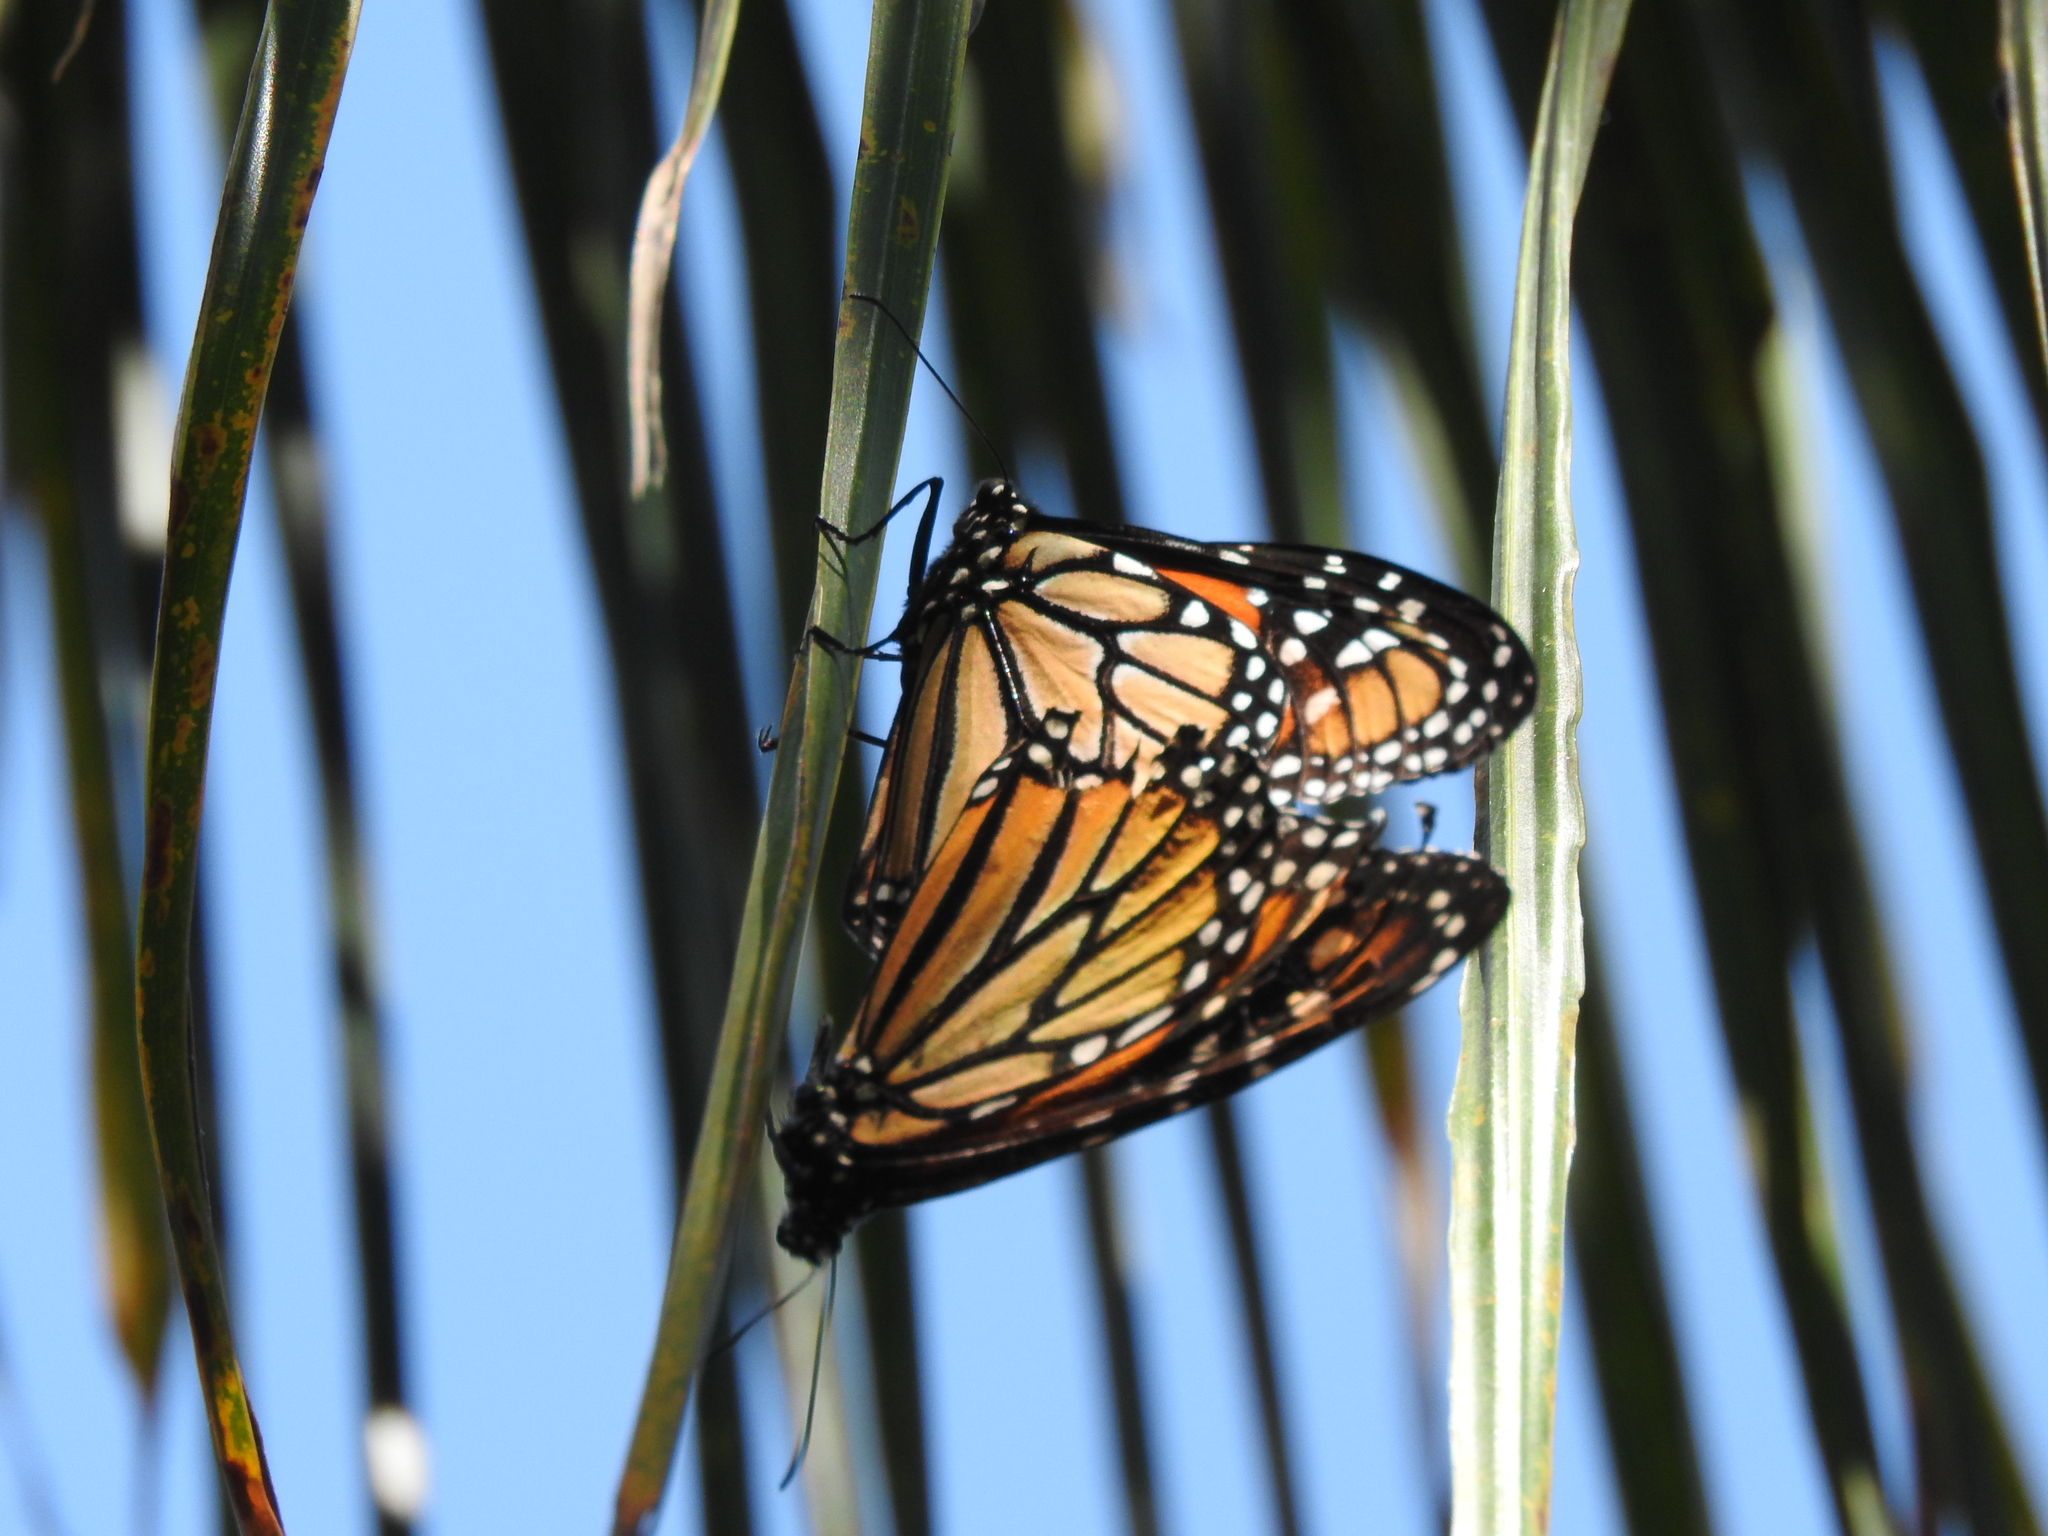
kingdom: Animalia
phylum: Arthropoda
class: Insecta
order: Lepidoptera
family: Nymphalidae
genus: Danaus
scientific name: Danaus plexippus
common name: Monarch
